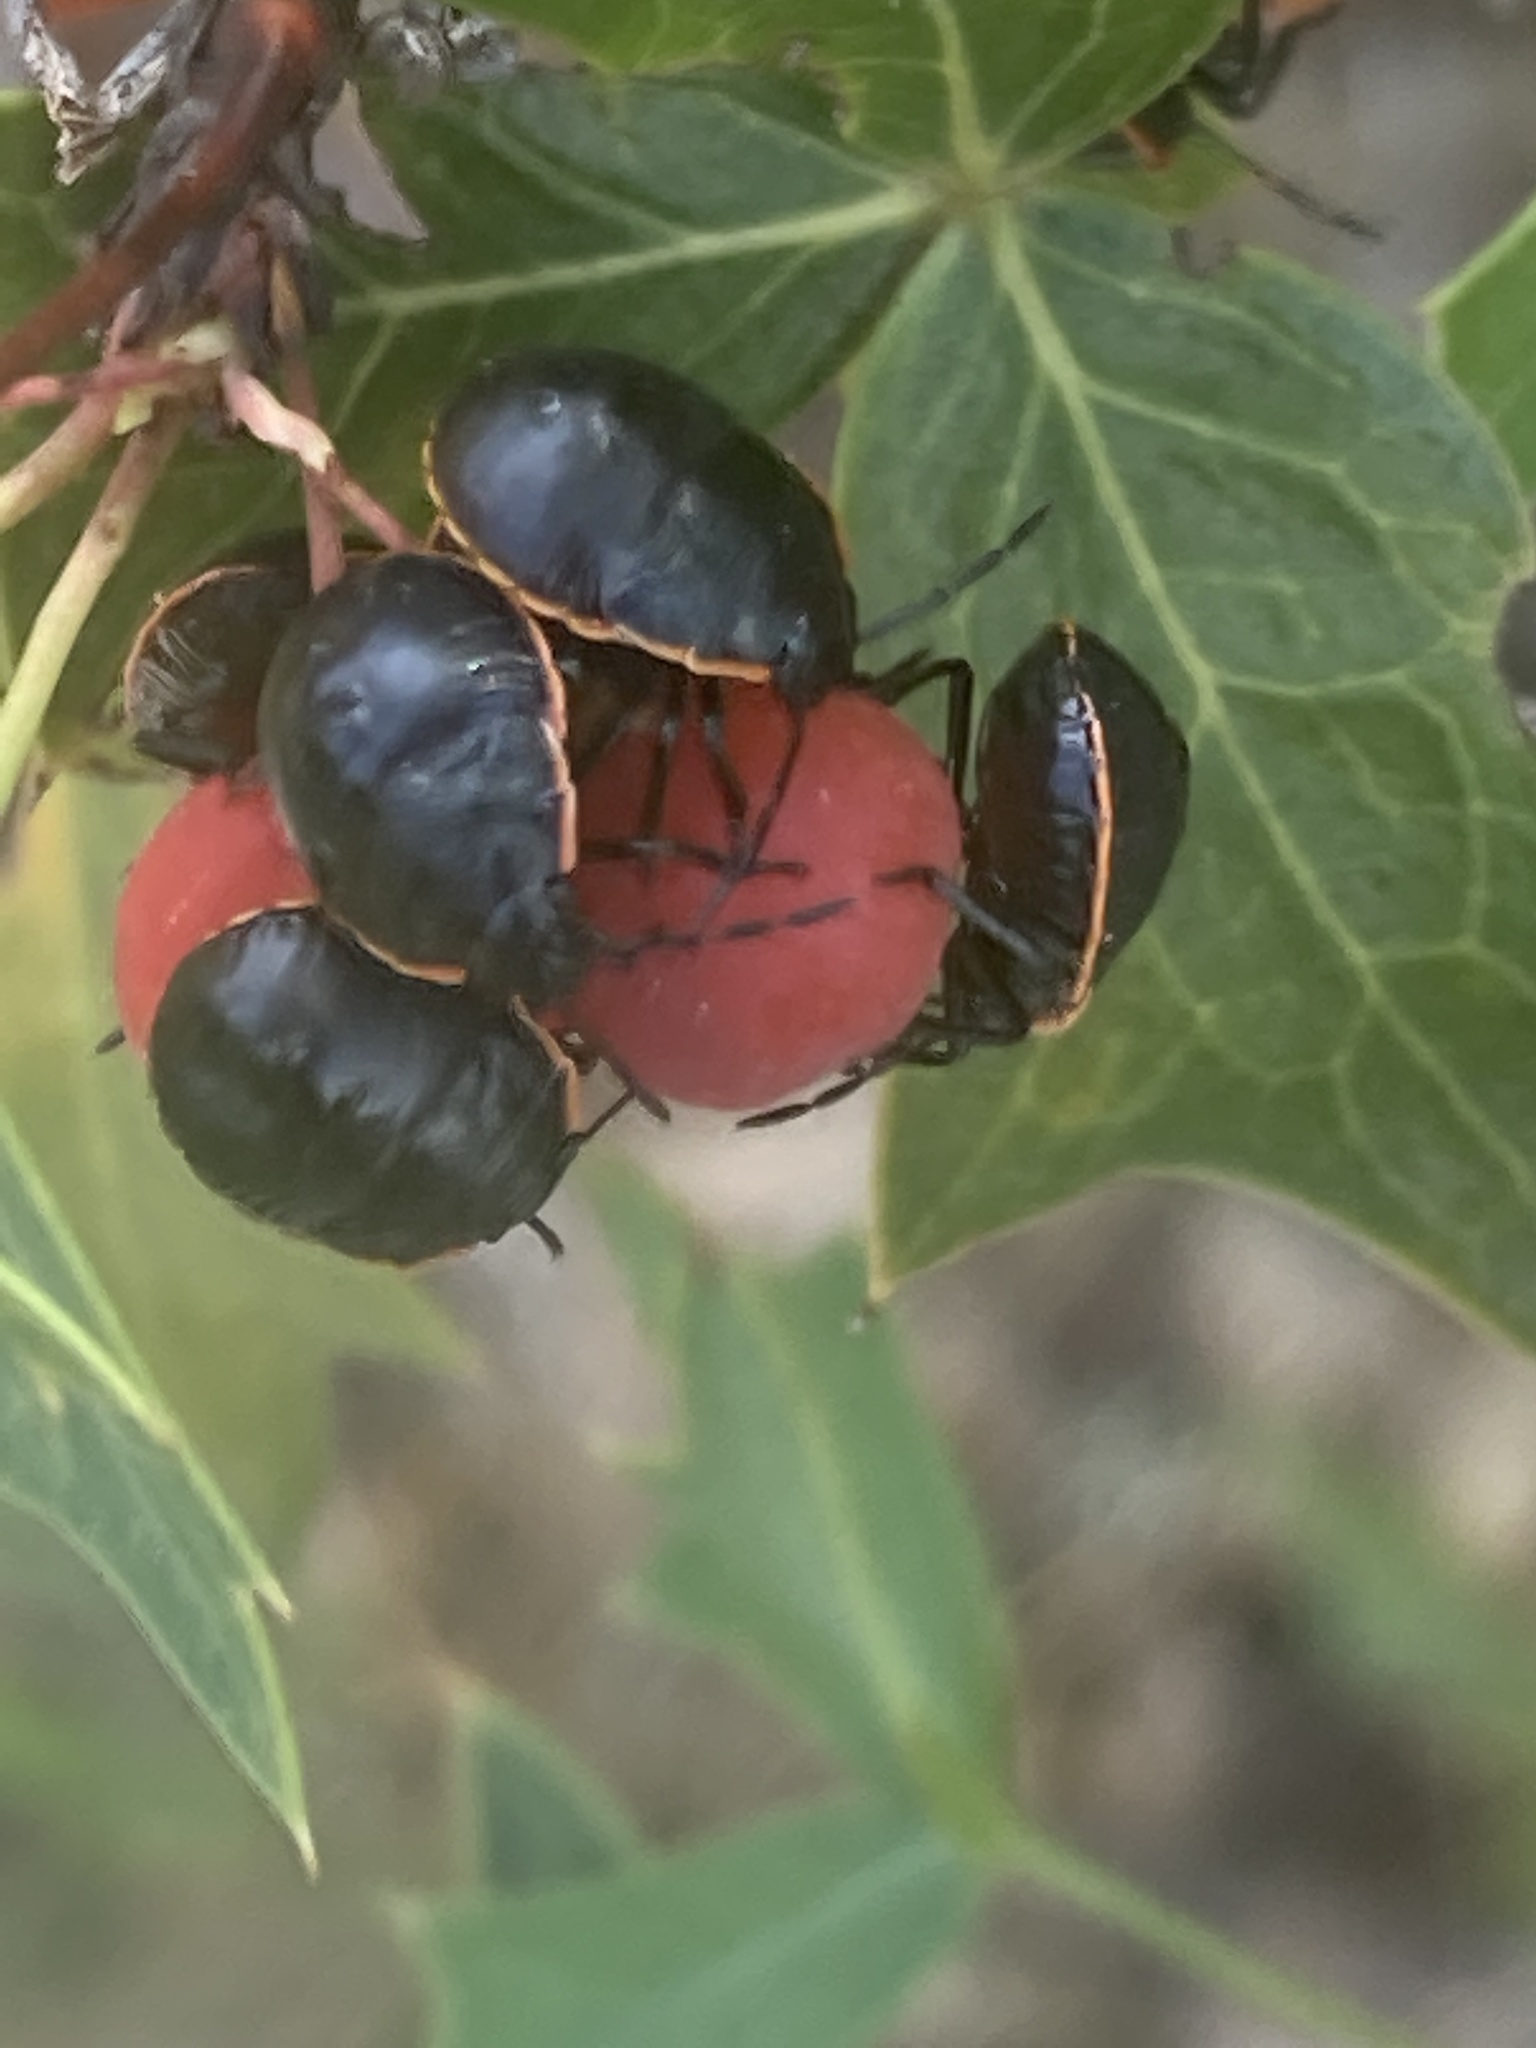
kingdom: Animalia
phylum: Arthropoda
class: Insecta
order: Hemiptera
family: Pentatomidae
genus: Chlorochroa
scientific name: Chlorochroa ligata
